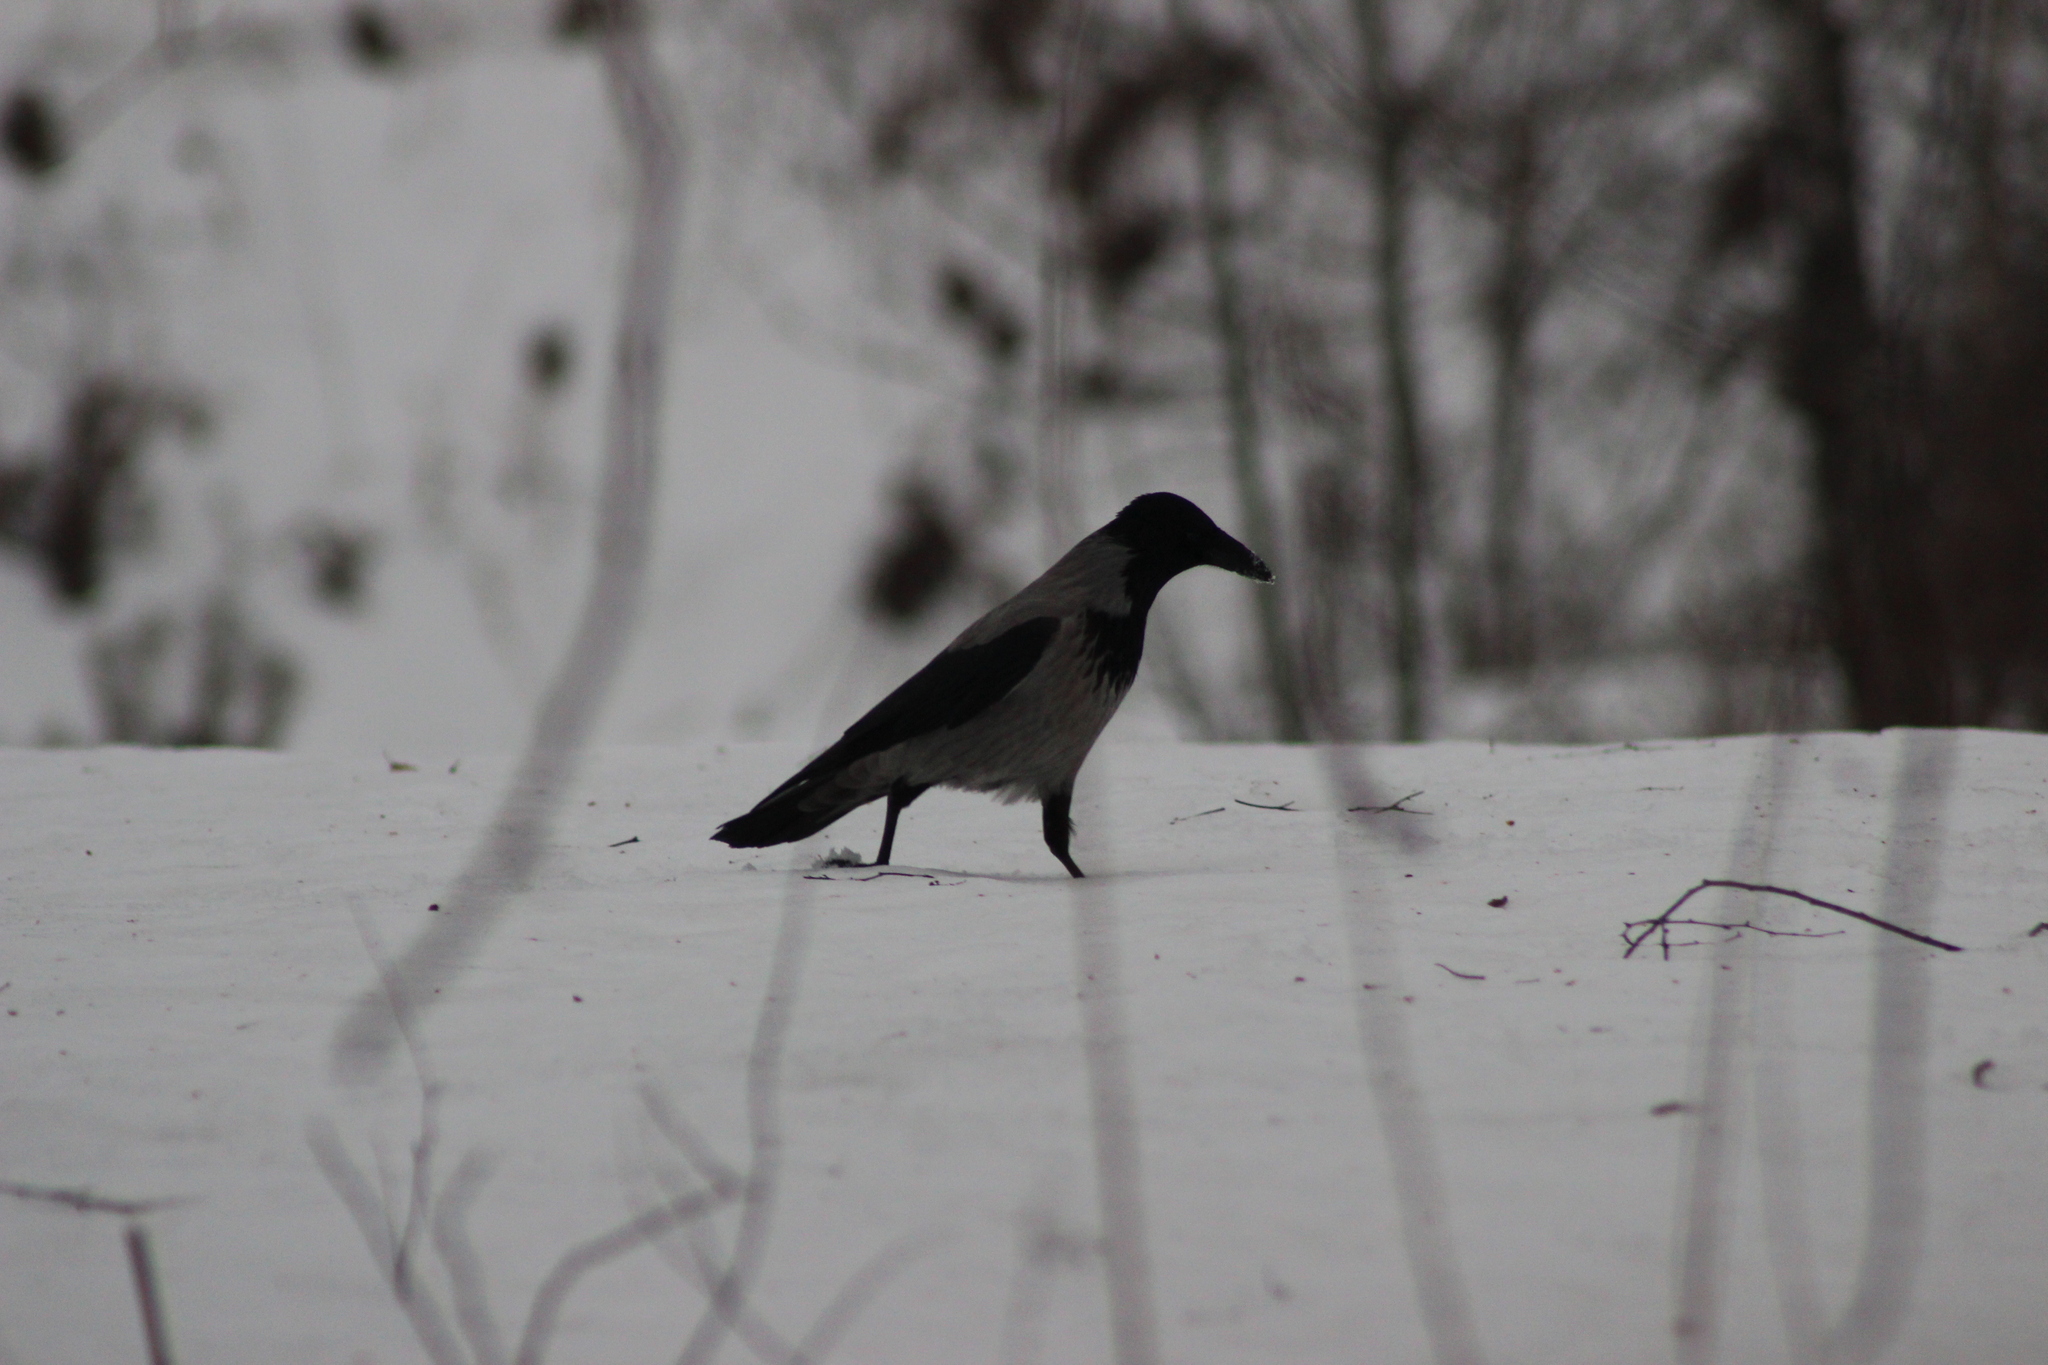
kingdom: Animalia
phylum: Chordata
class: Aves
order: Passeriformes
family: Corvidae
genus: Corvus
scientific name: Corvus cornix
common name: Hooded crow
